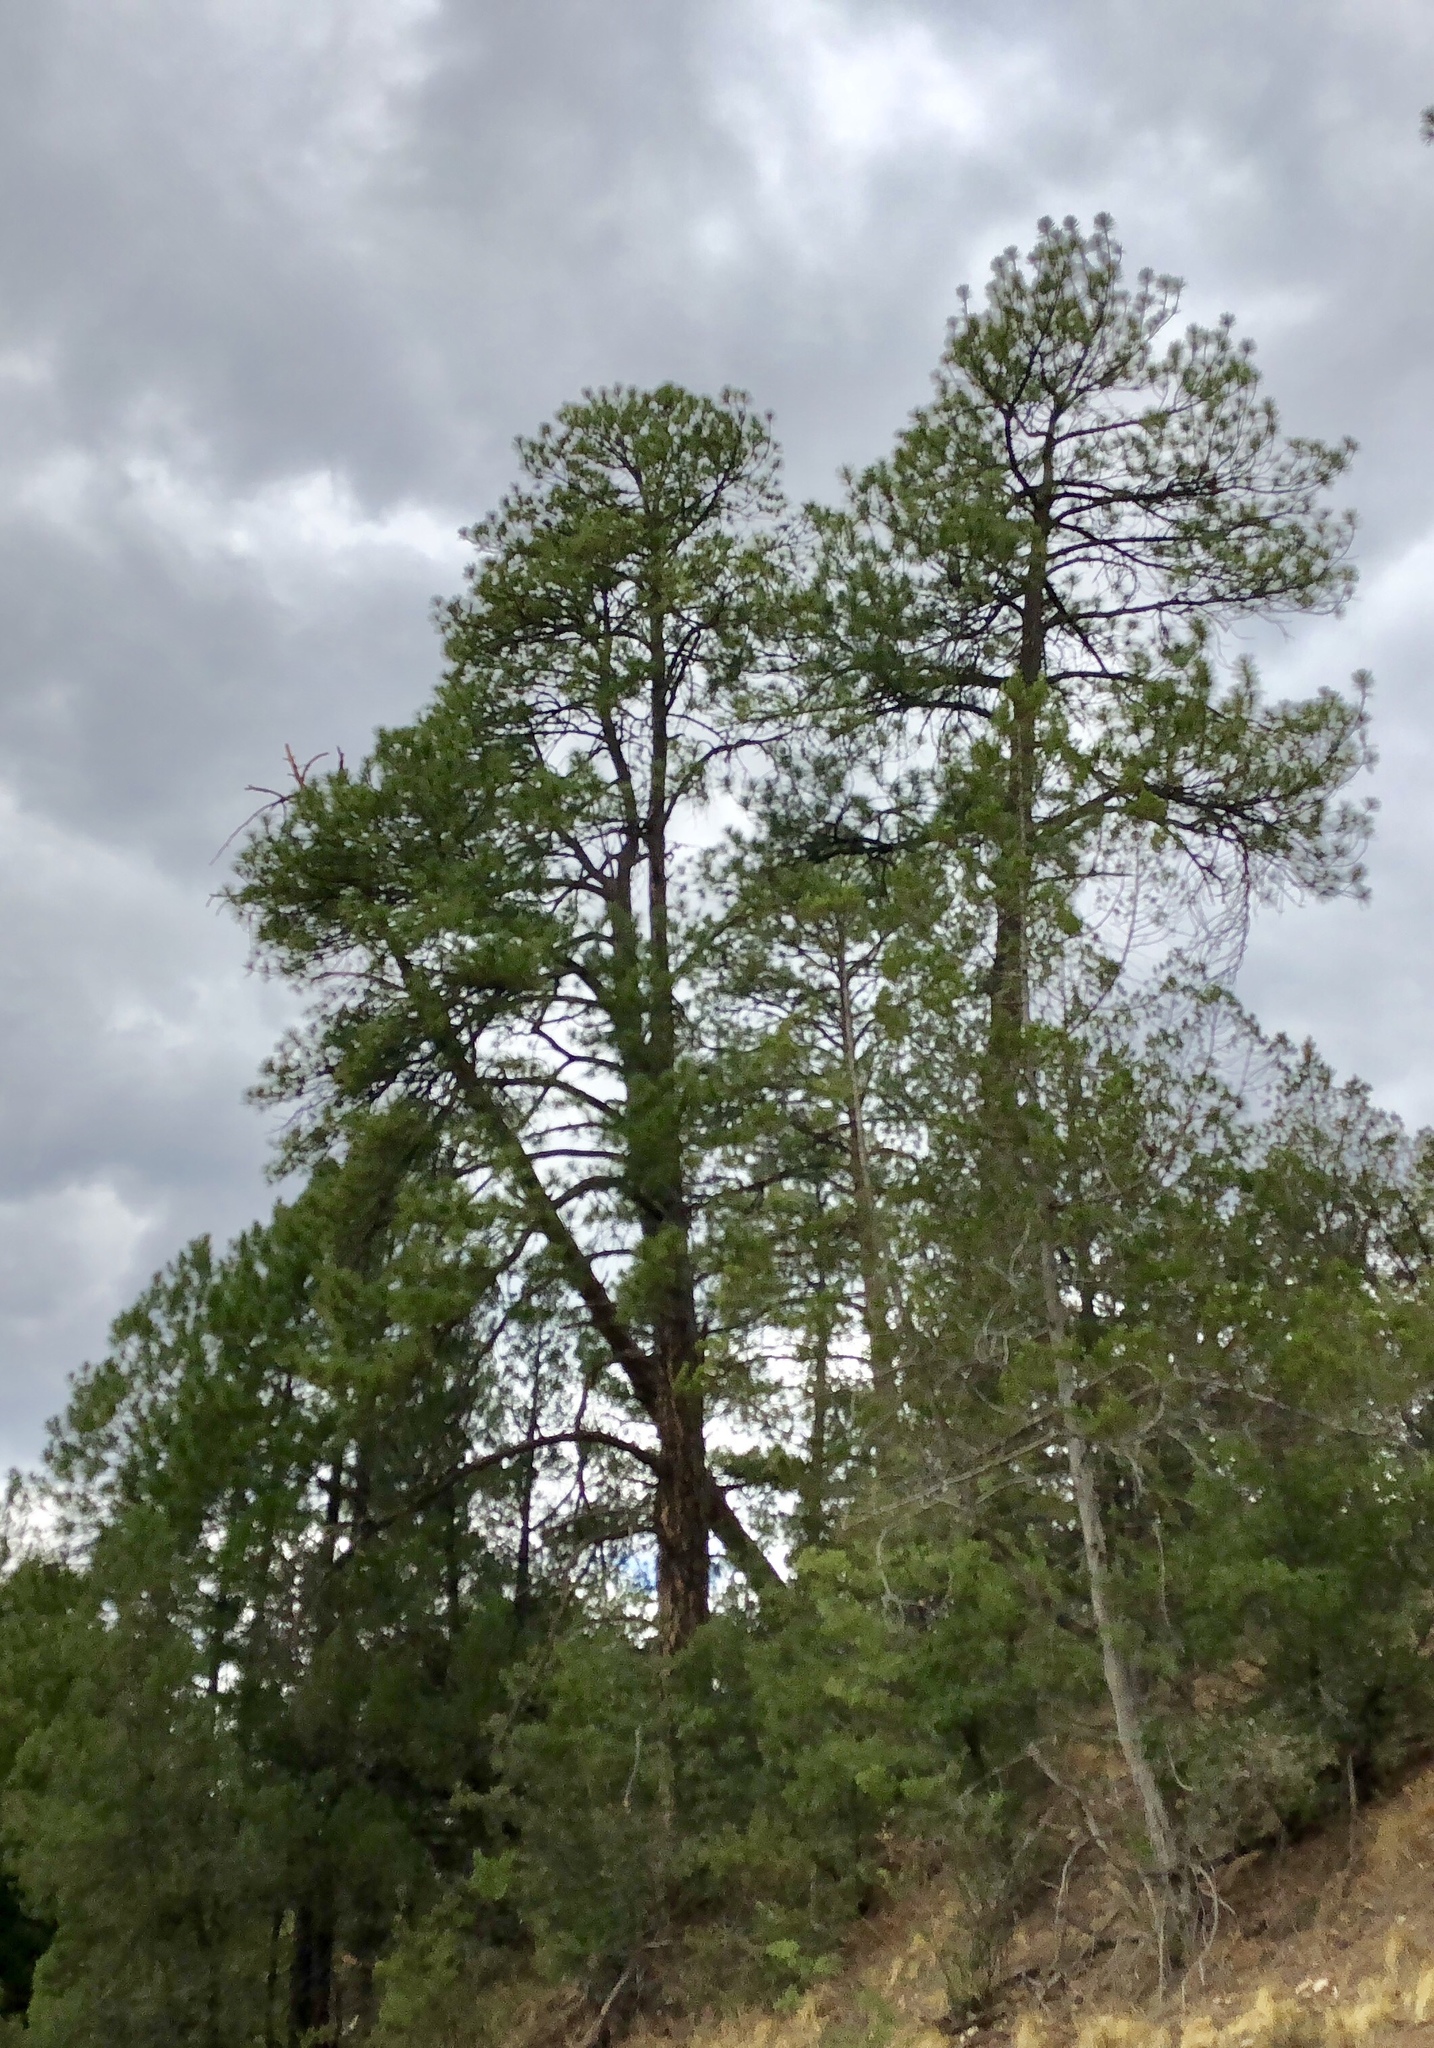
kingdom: Plantae
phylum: Tracheophyta
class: Pinopsida
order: Pinales
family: Pinaceae
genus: Pinus
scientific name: Pinus ponderosa
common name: Western yellow-pine
